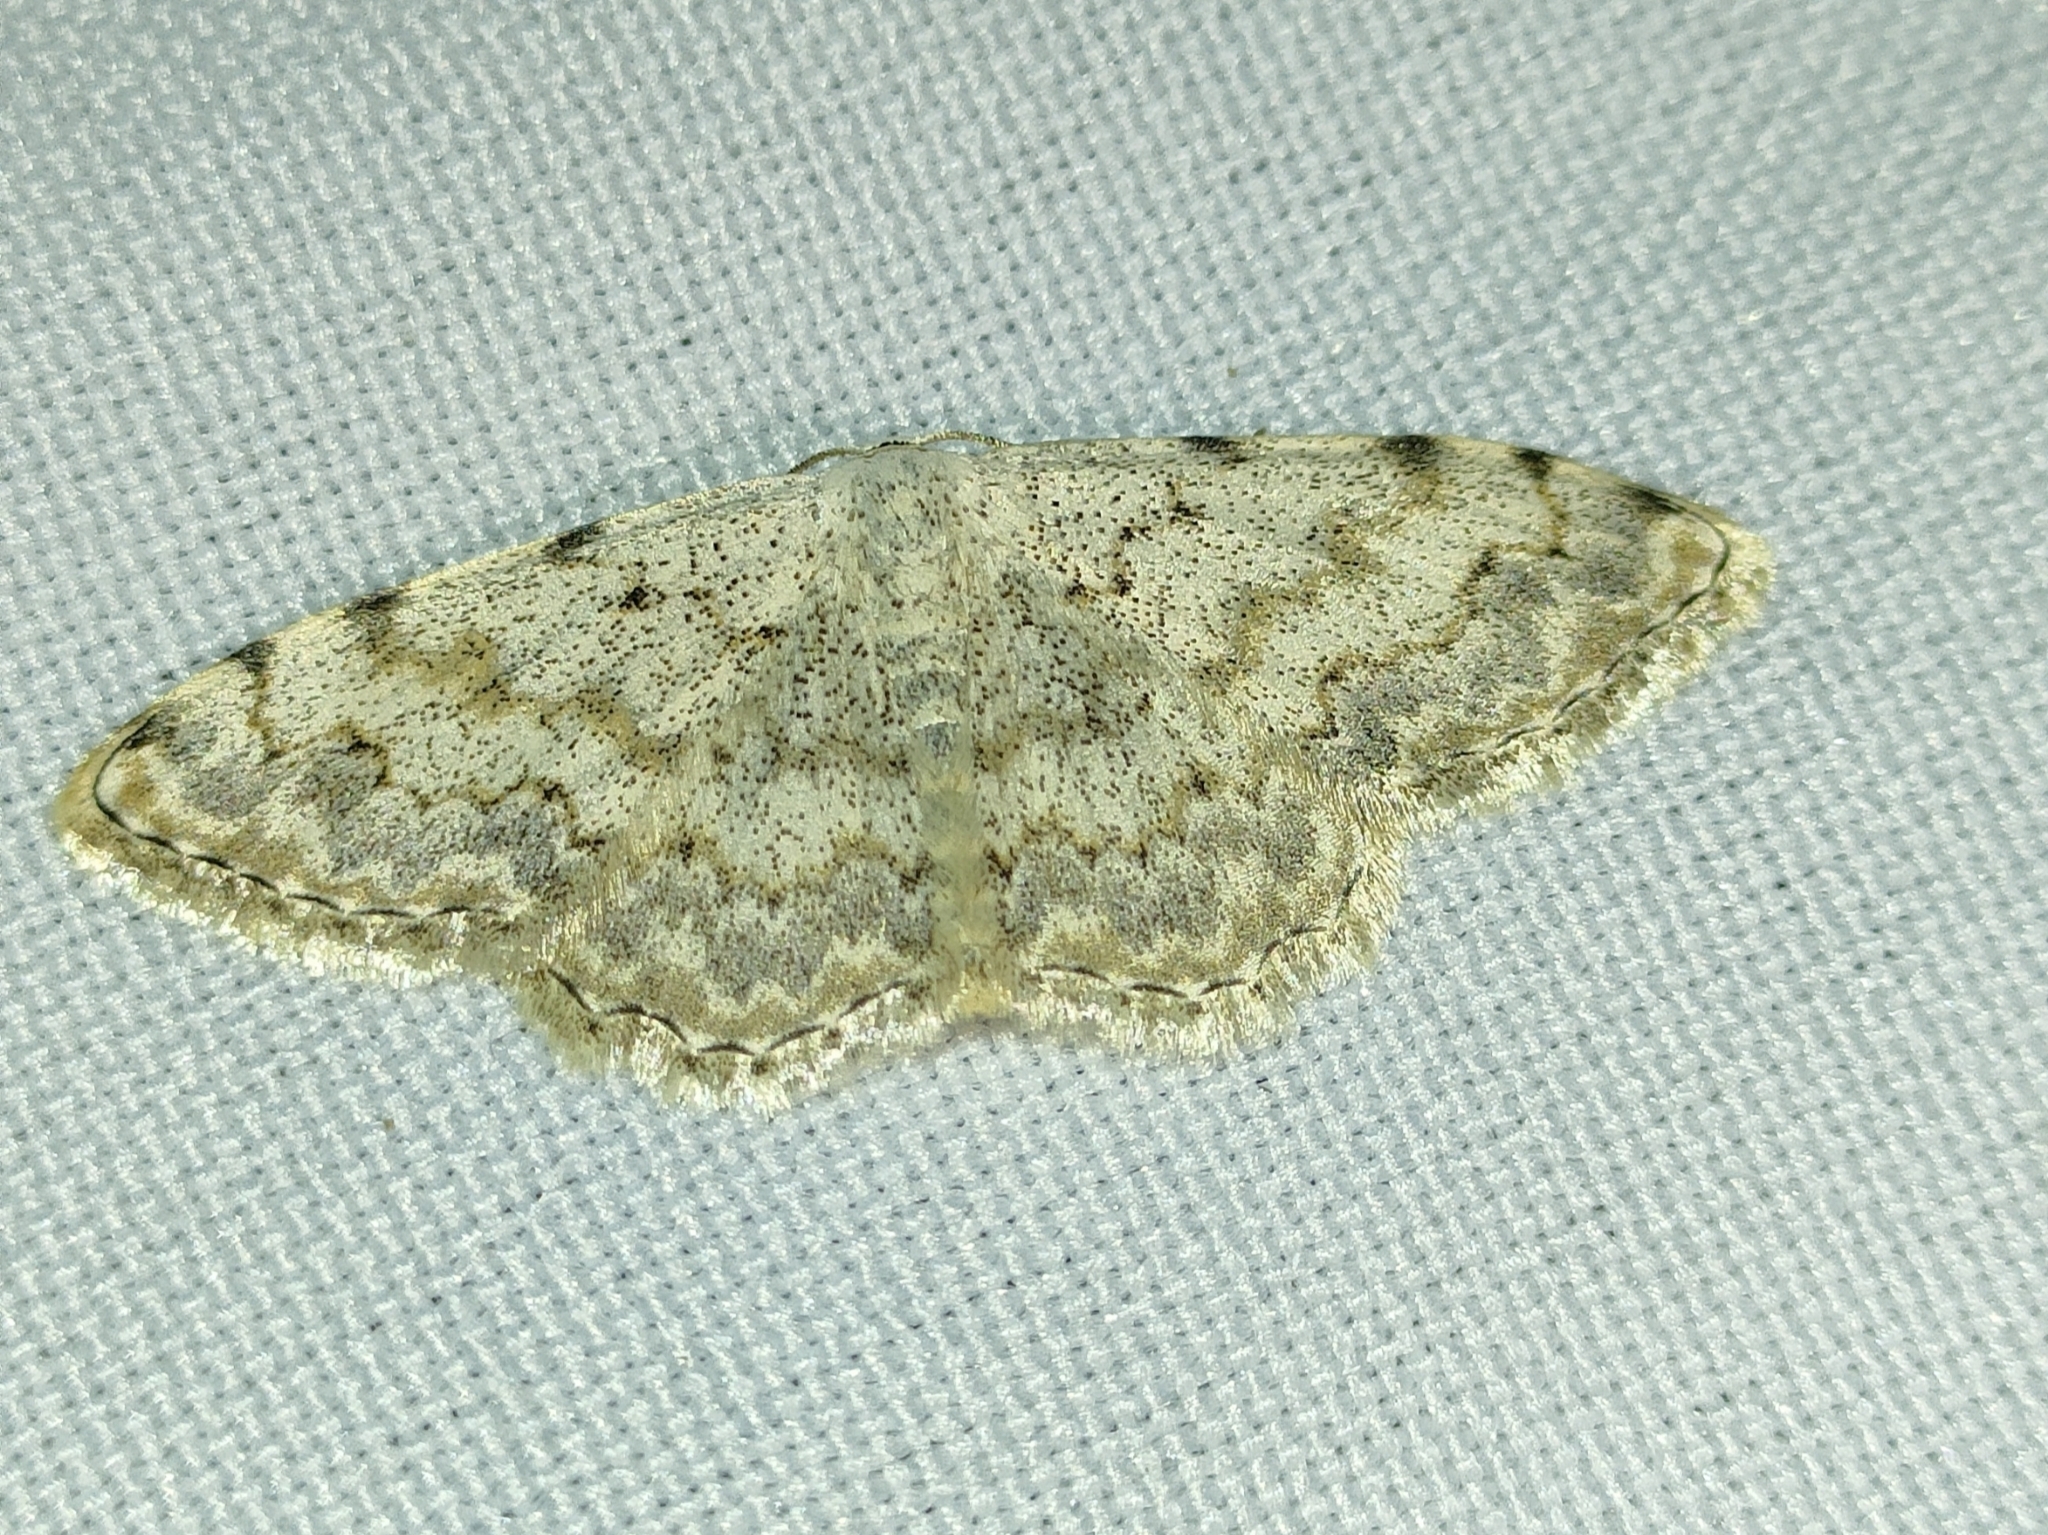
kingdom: Animalia
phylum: Arthropoda
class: Insecta
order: Lepidoptera
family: Geometridae
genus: Scopula
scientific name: Scopula submutata
